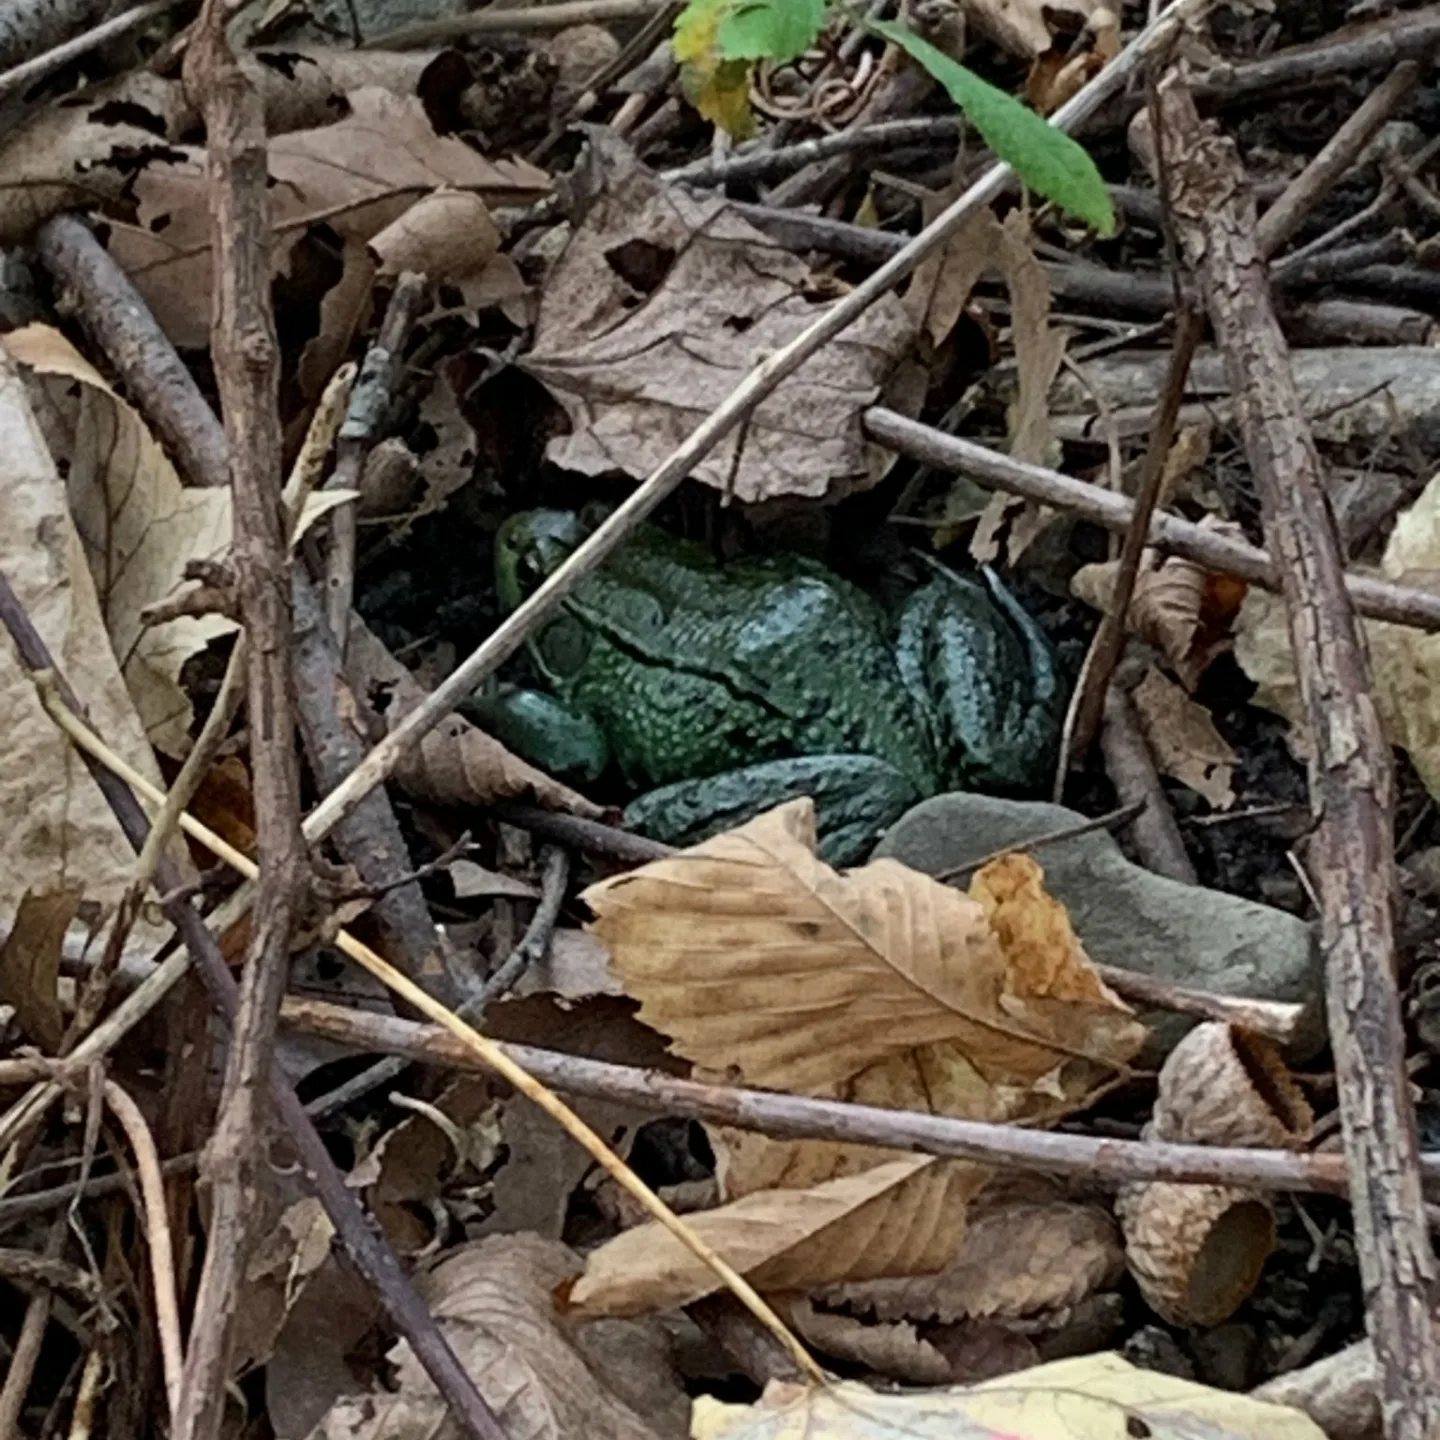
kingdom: Animalia
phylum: Chordata
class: Amphibia
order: Anura
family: Ranidae
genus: Lithobates
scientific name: Lithobates clamitans
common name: Green frog
